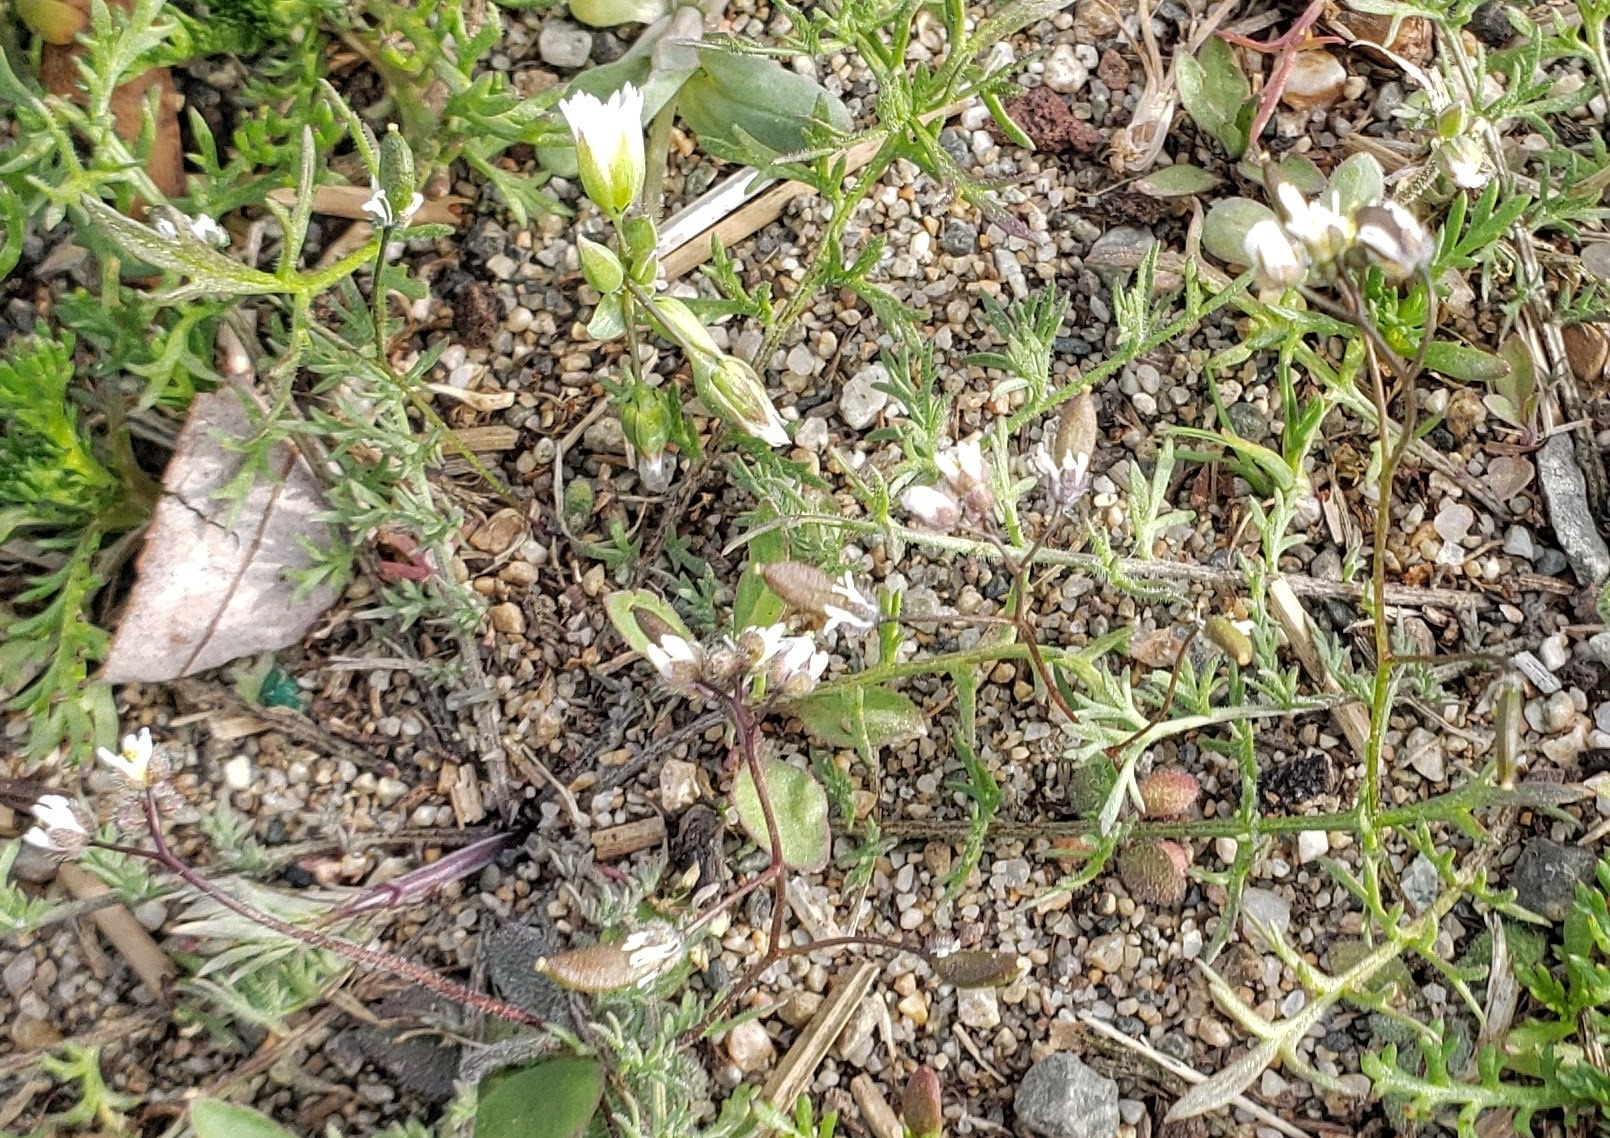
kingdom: Plantae
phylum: Tracheophyta
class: Magnoliopsida
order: Brassicales
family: Brassicaceae
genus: Draba
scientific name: Draba verna
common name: Spring draba
